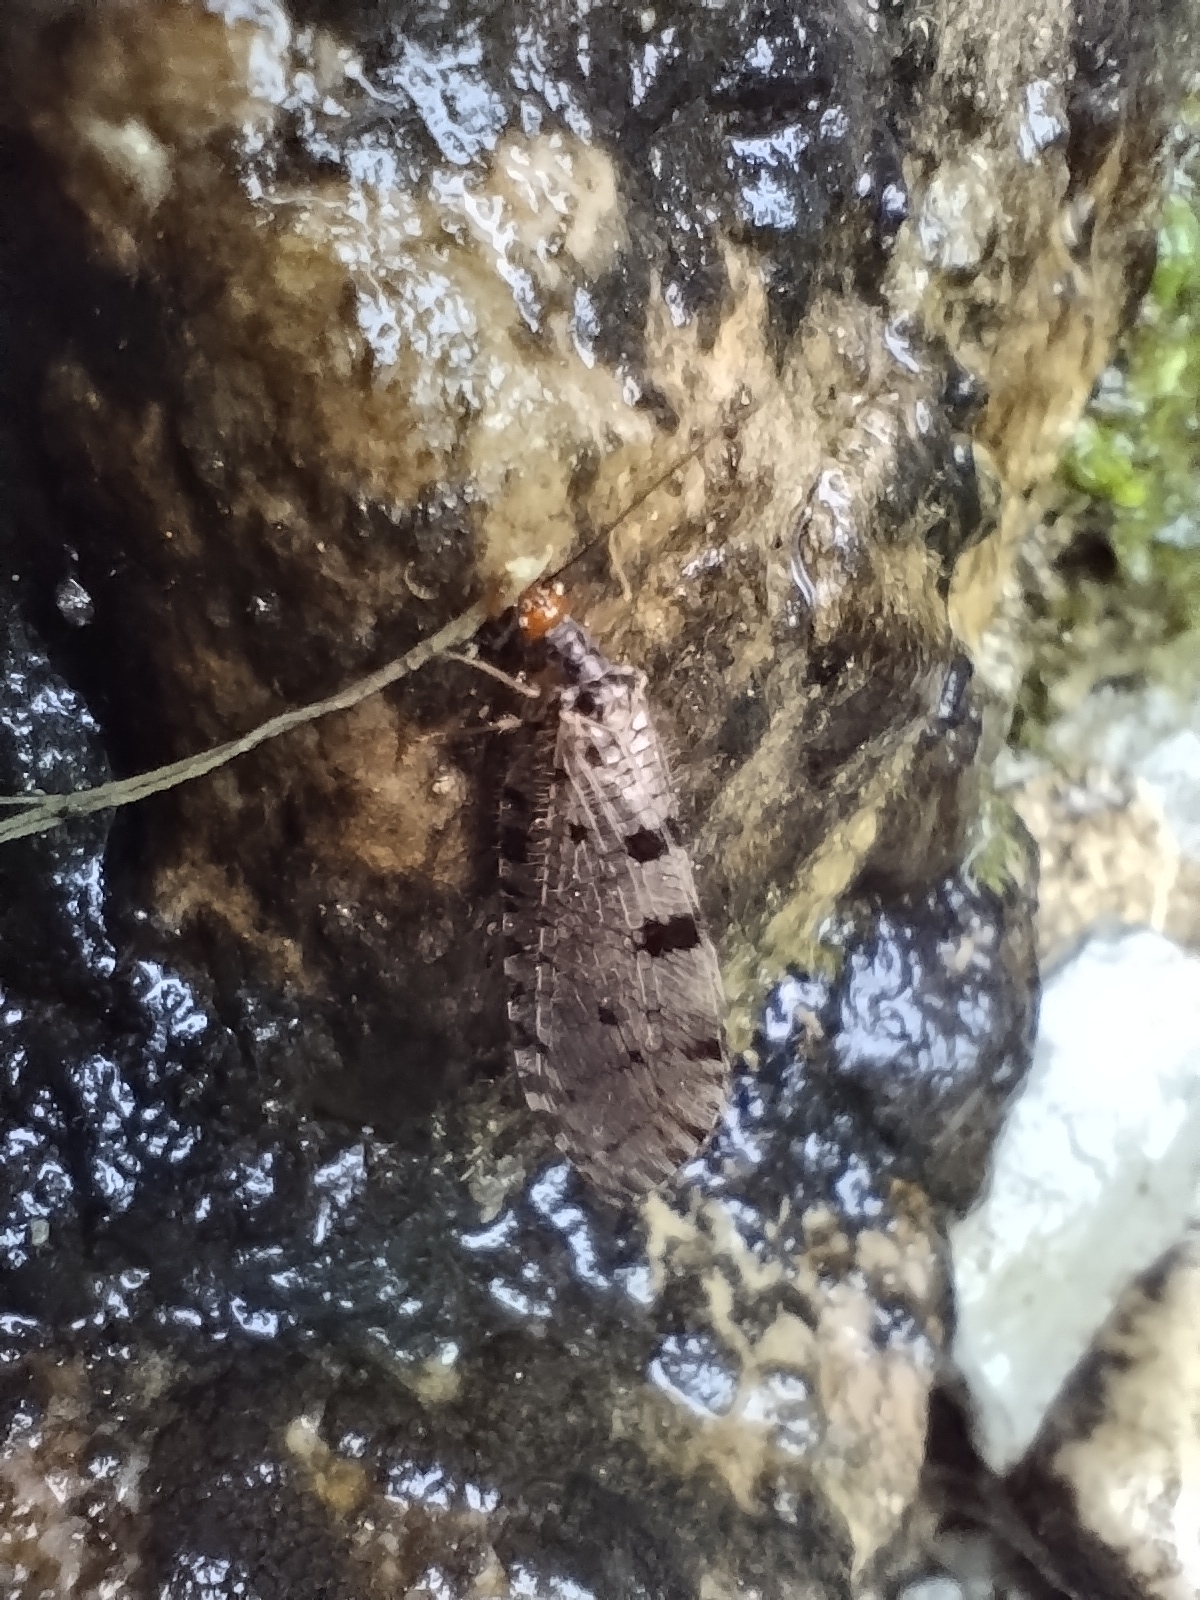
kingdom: Animalia
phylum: Arthropoda
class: Insecta
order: Neuroptera
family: Osmylidae
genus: Osmylus
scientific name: Osmylus fulvicephalus
